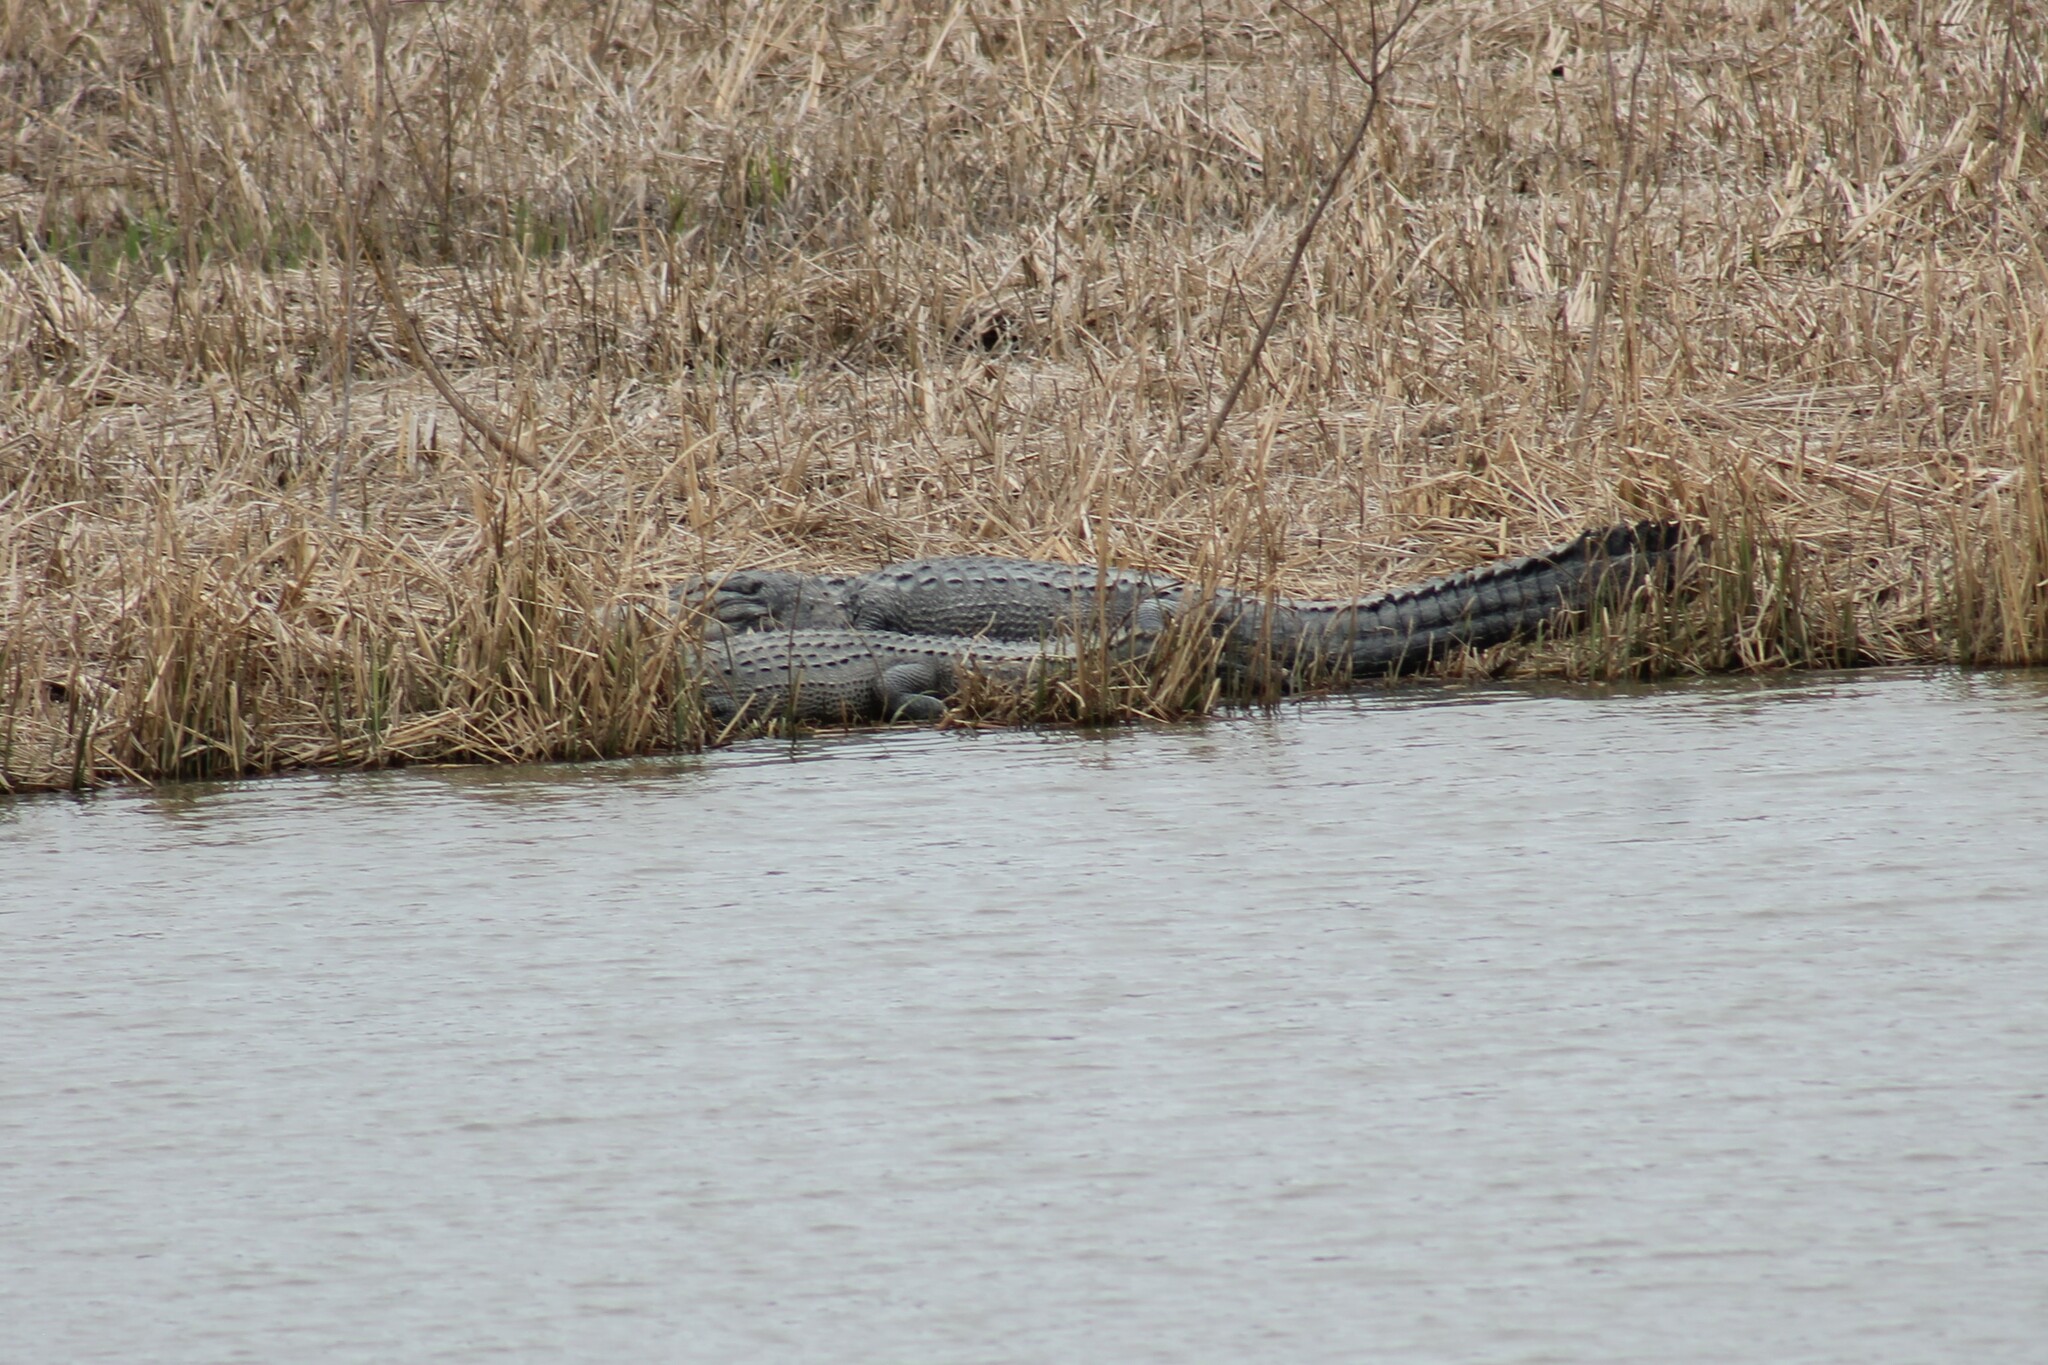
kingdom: Animalia
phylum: Chordata
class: Crocodylia
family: Alligatoridae
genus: Alligator
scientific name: Alligator mississippiensis
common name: American alligator
